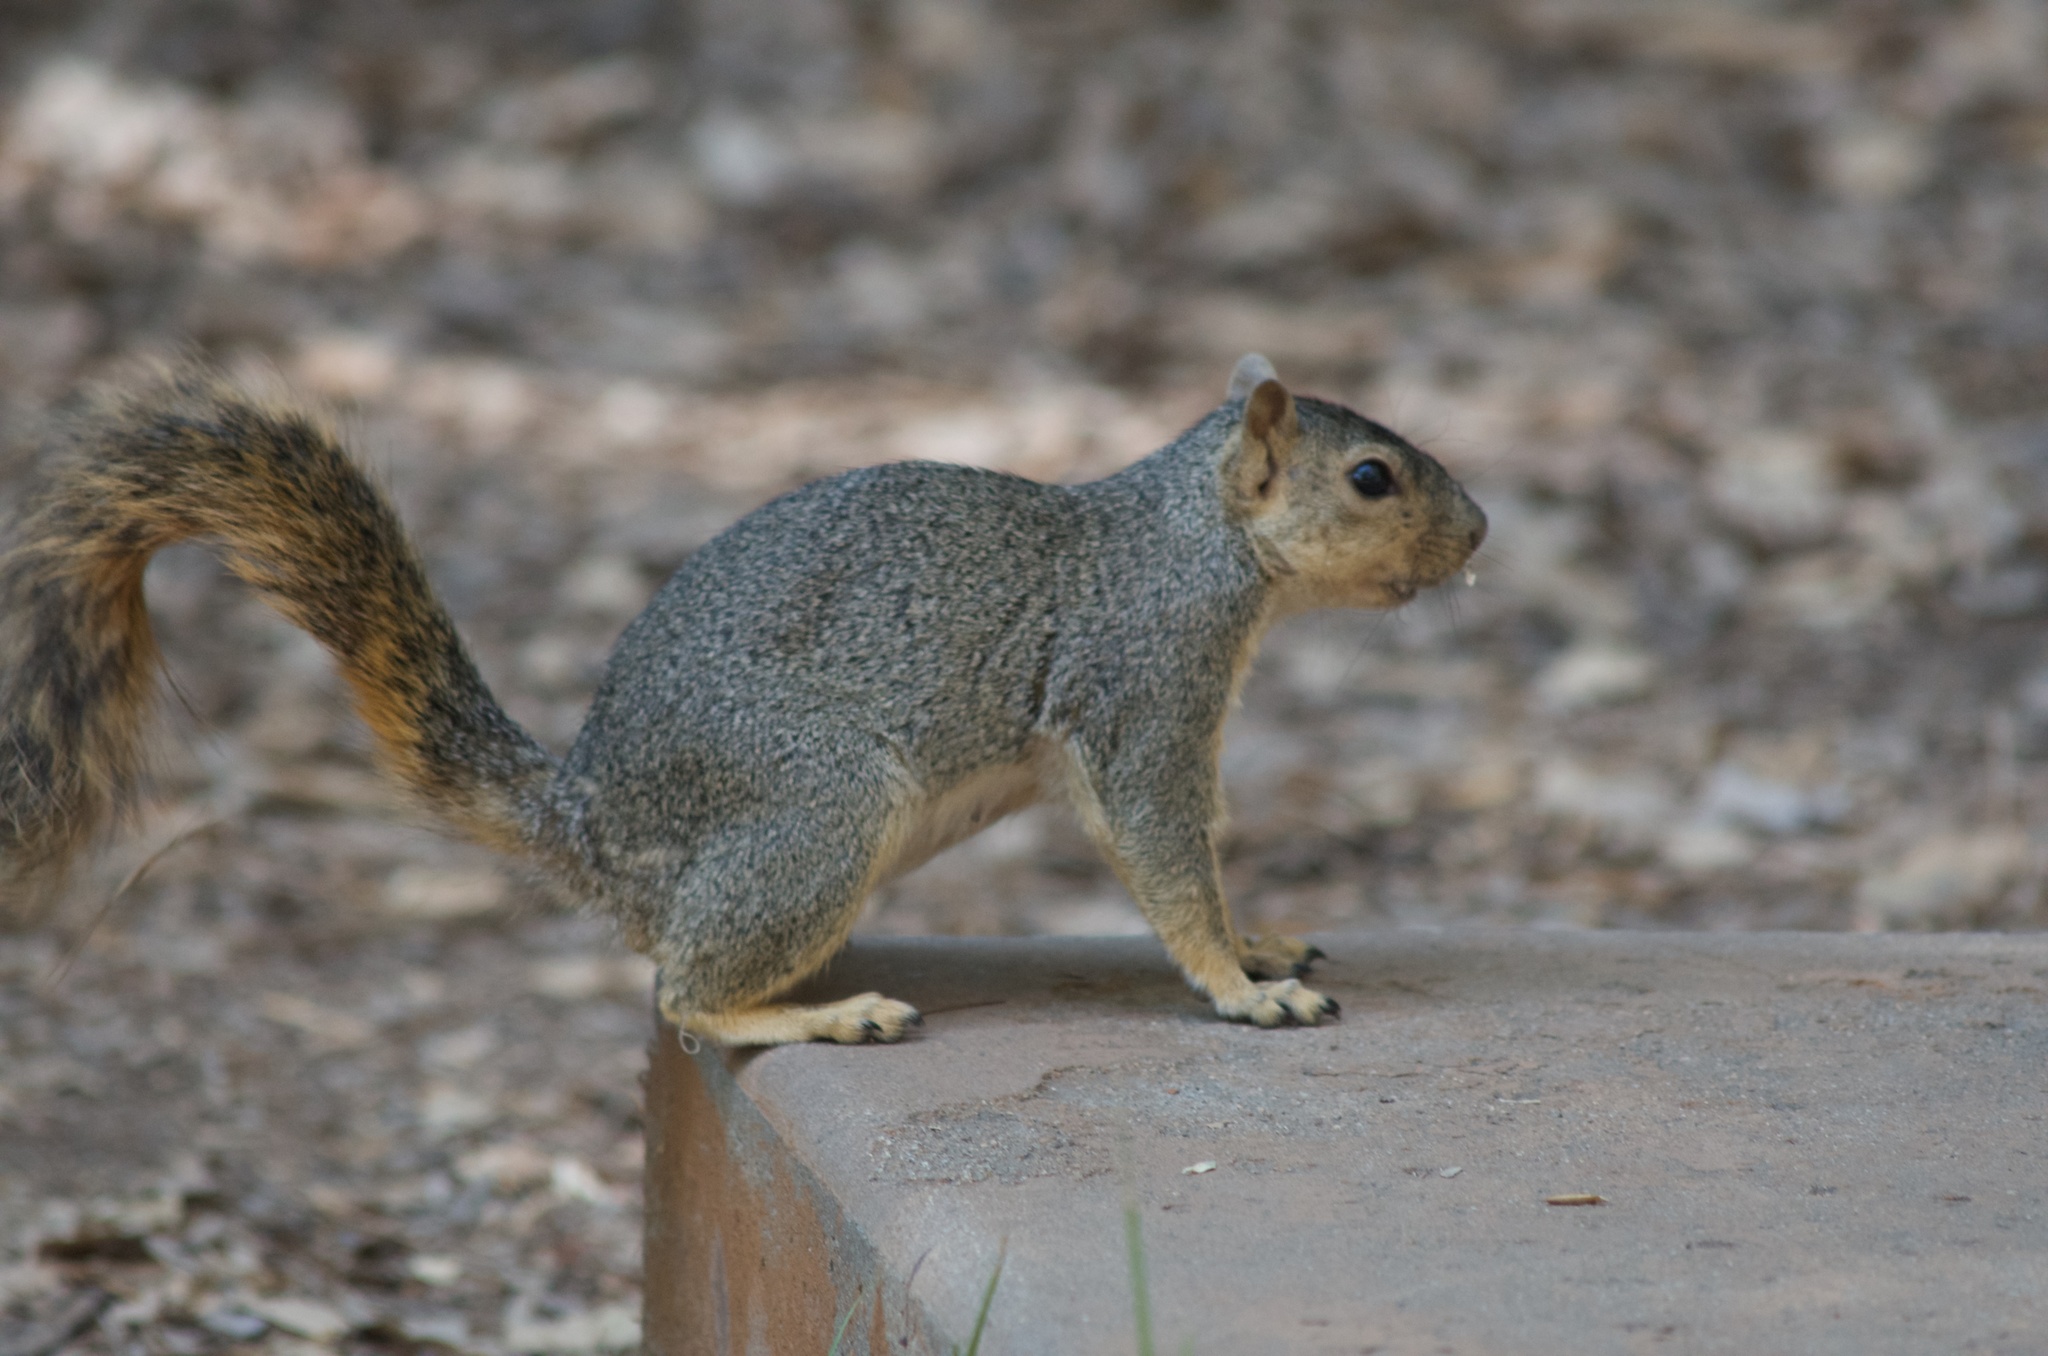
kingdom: Animalia
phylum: Chordata
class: Mammalia
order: Rodentia
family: Sciuridae
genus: Sciurus
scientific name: Sciurus niger
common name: Fox squirrel
